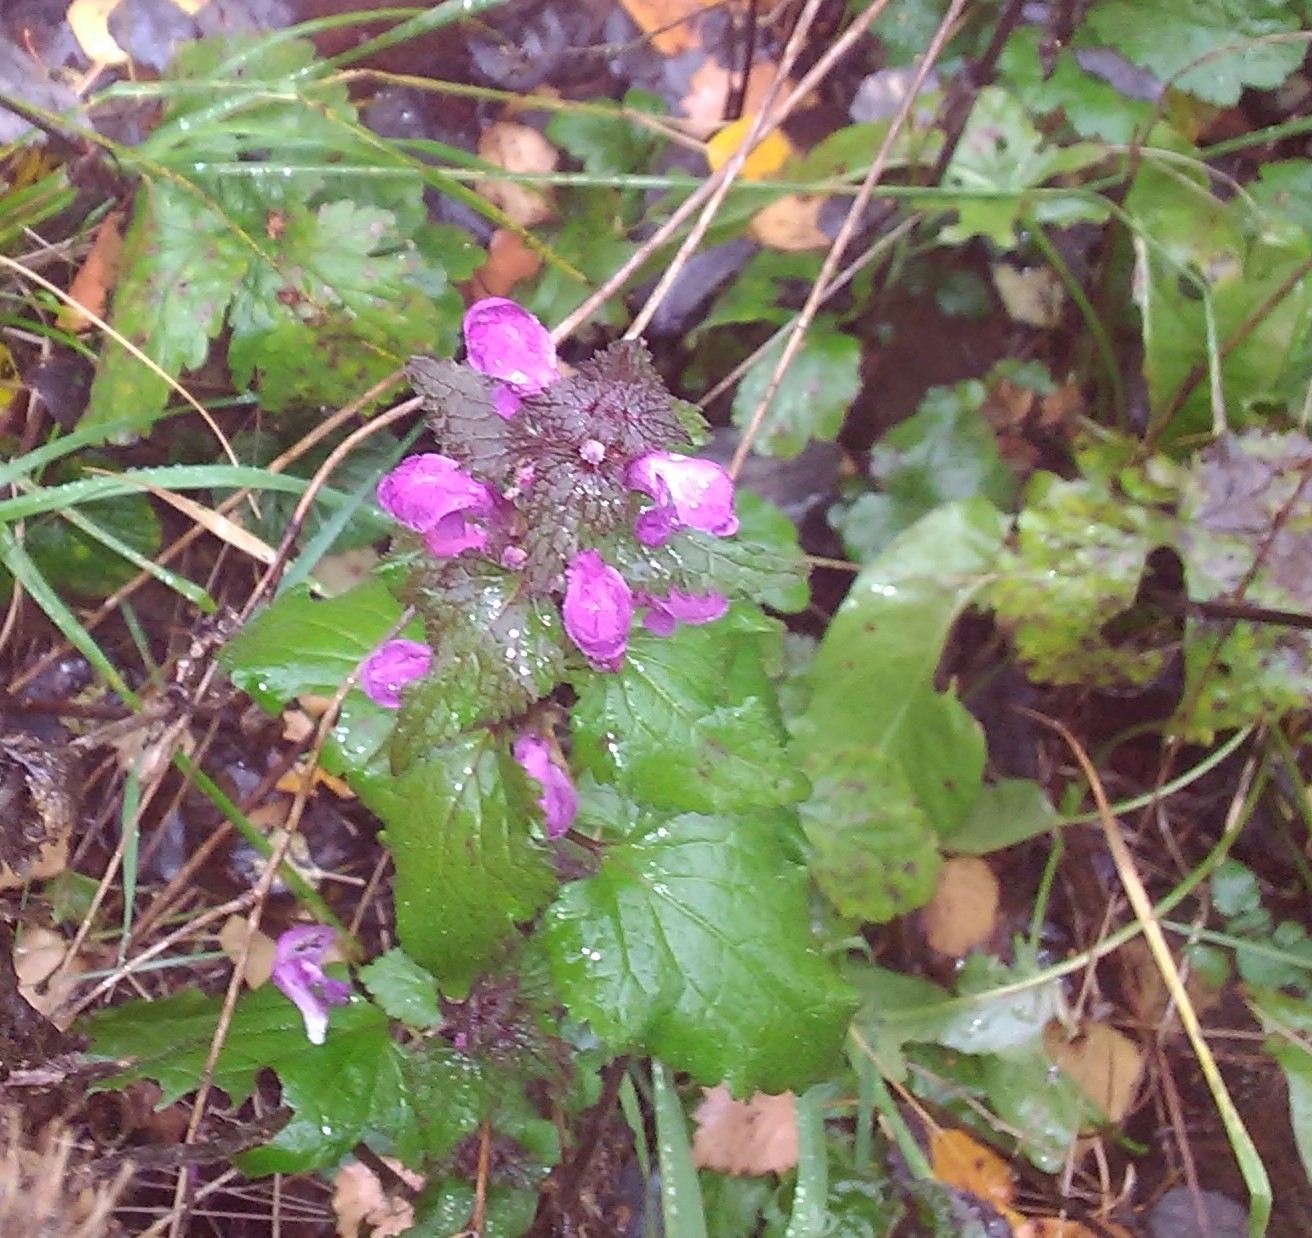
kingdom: Plantae
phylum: Tracheophyta
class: Magnoliopsida
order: Lamiales
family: Lamiaceae
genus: Lamium
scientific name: Lamium maculatum
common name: Spotted dead-nettle
